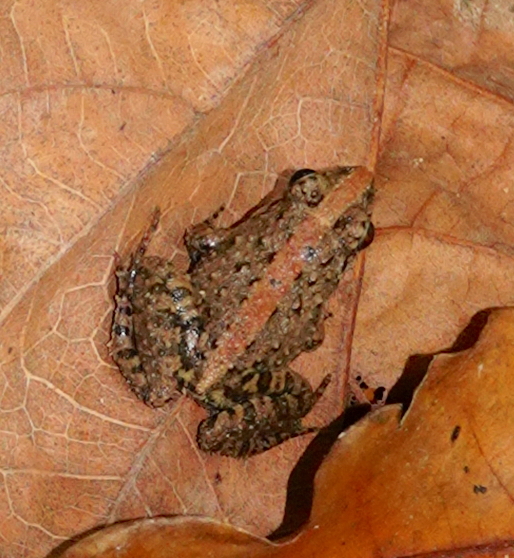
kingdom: Animalia
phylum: Chordata
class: Amphibia
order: Anura
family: Dicroglossidae
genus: Minervarya
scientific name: Minervarya agricola
